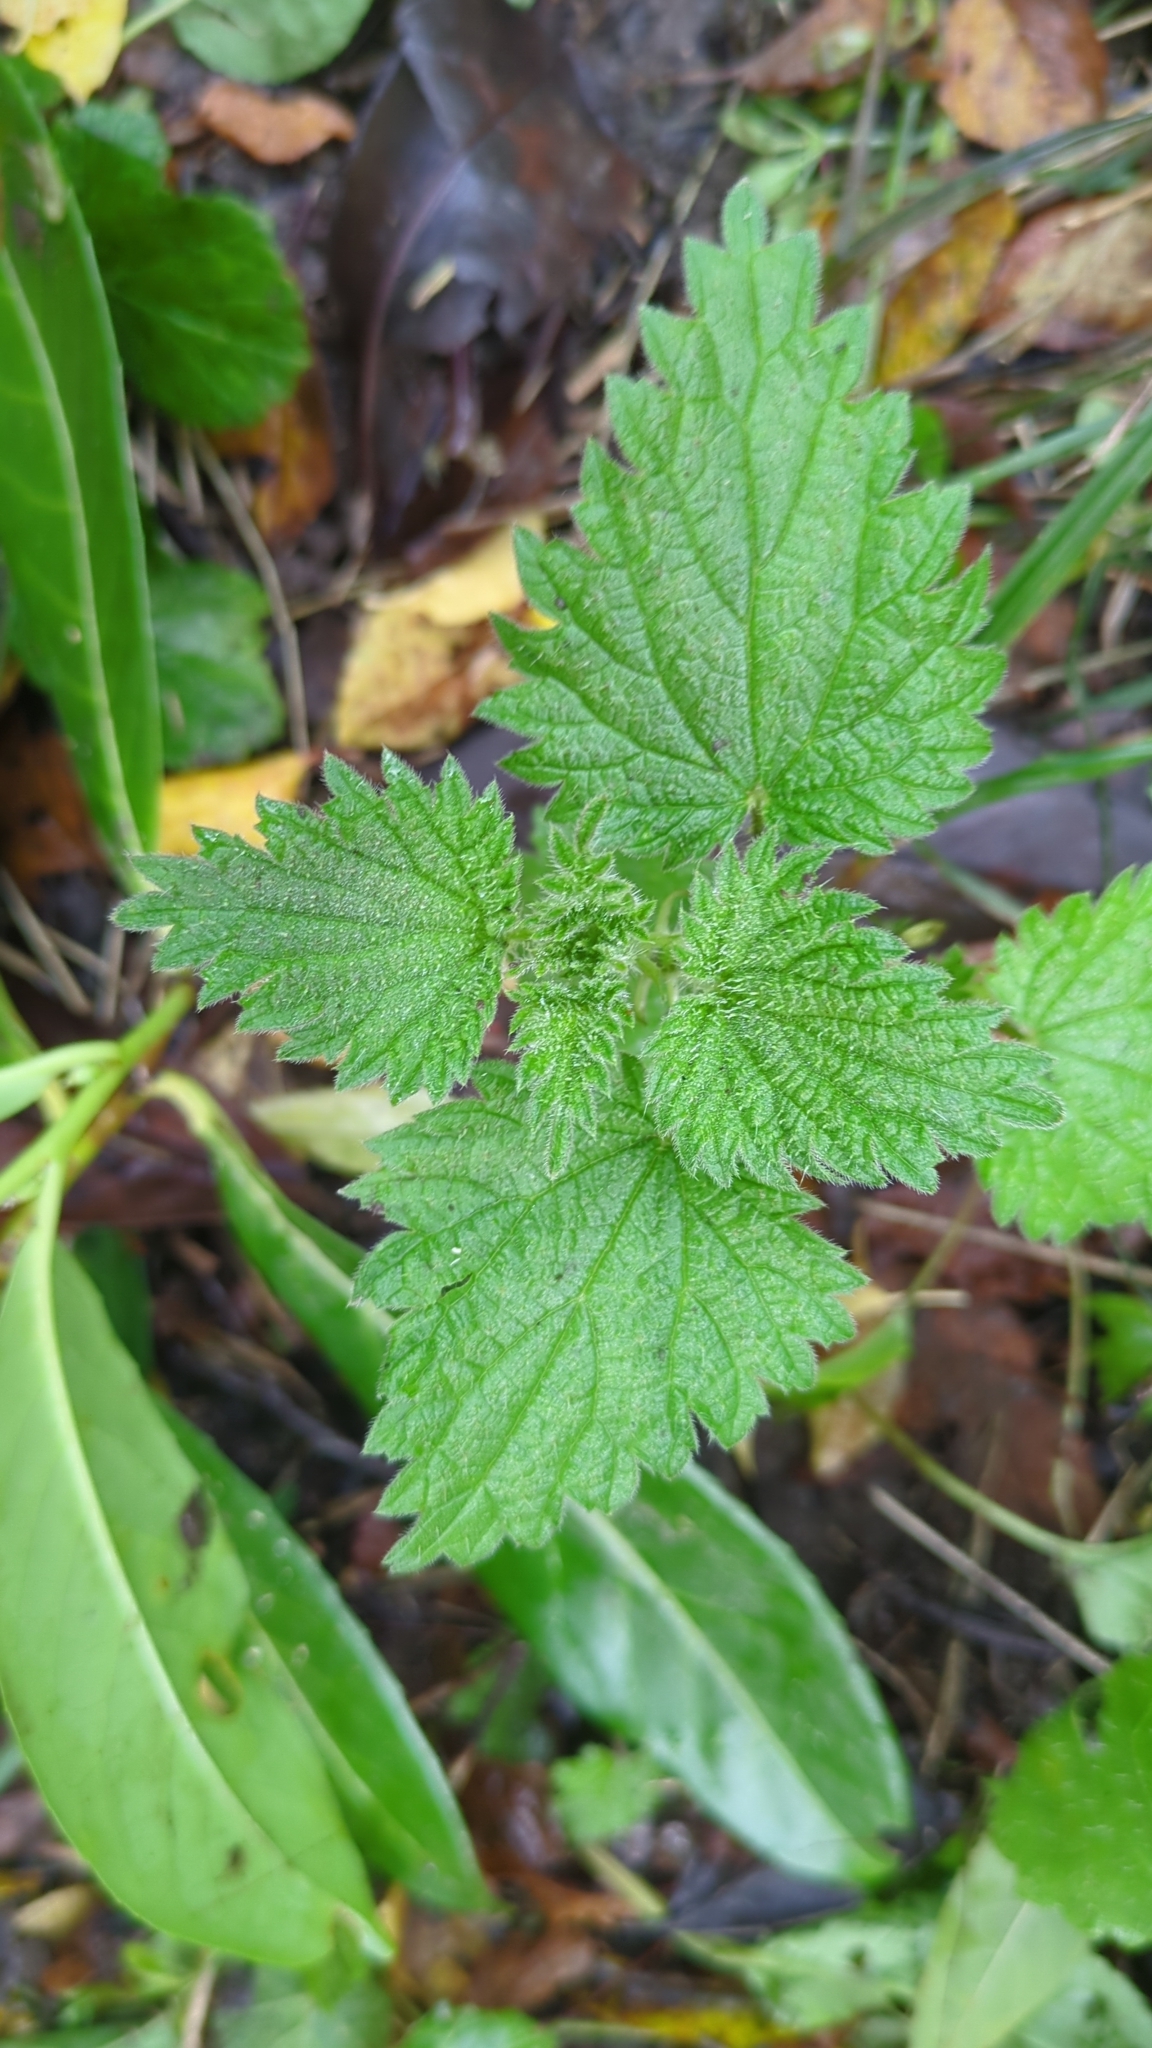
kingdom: Plantae
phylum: Tracheophyta
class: Magnoliopsida
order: Rosales
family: Urticaceae
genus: Urtica
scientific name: Urtica dioica
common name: Common nettle
